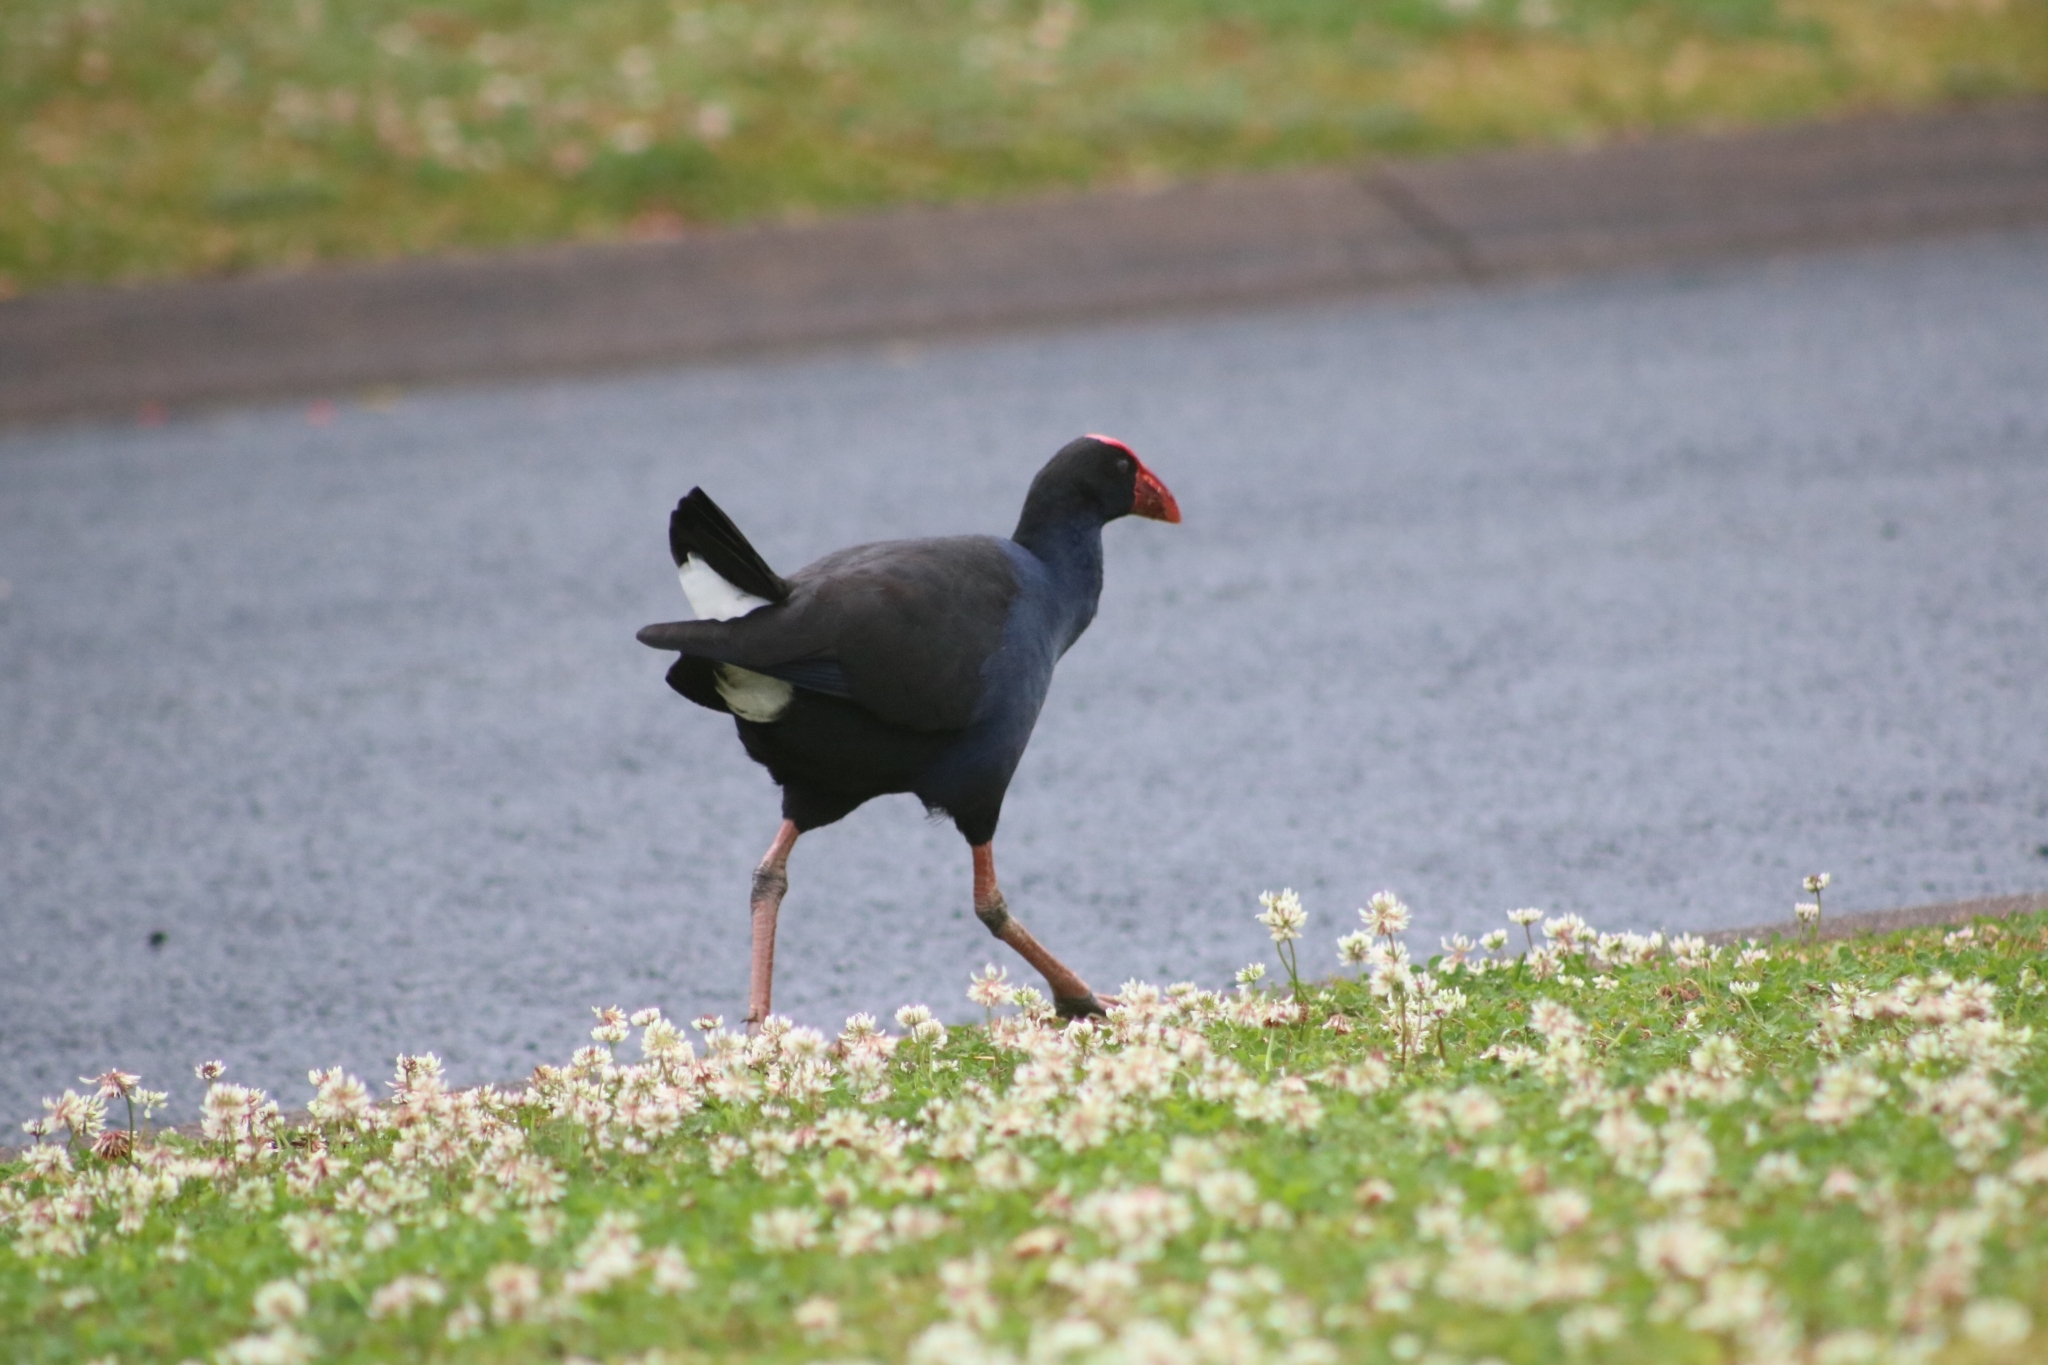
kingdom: Animalia
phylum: Chordata
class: Aves
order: Gruiformes
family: Rallidae
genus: Porphyrio
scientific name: Porphyrio melanotus
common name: Australasian swamphen
